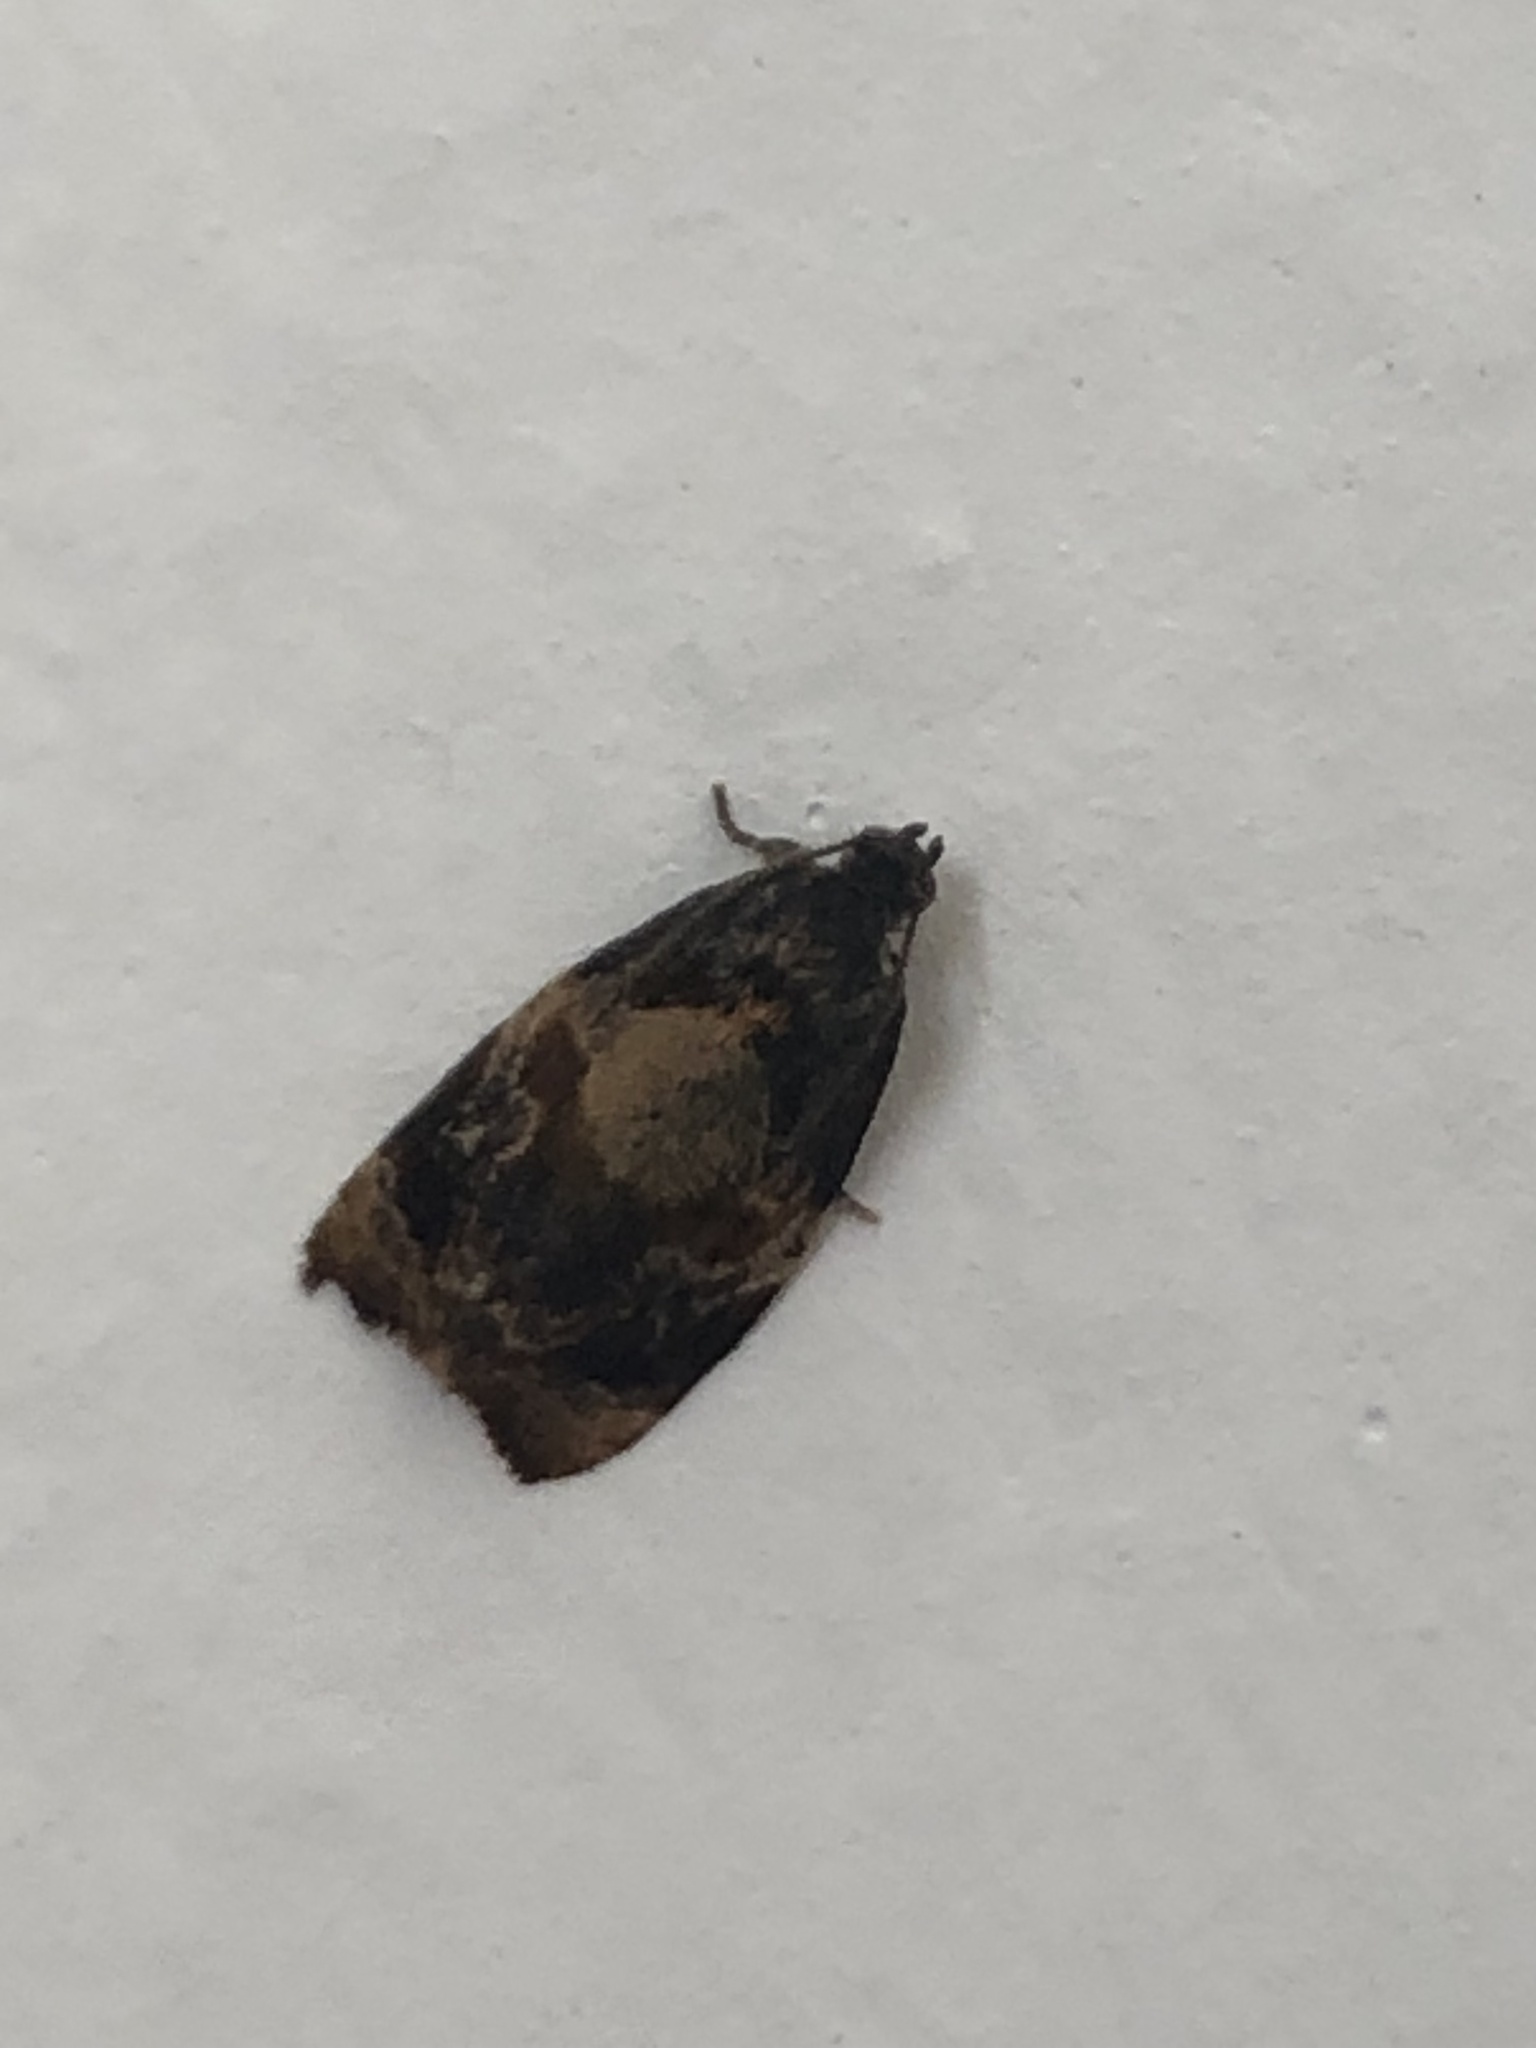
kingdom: Animalia
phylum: Arthropoda
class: Insecta
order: Lepidoptera
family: Tortricidae
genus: Ditula
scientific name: Ditula angustiorana
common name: Red-barred tortrix
